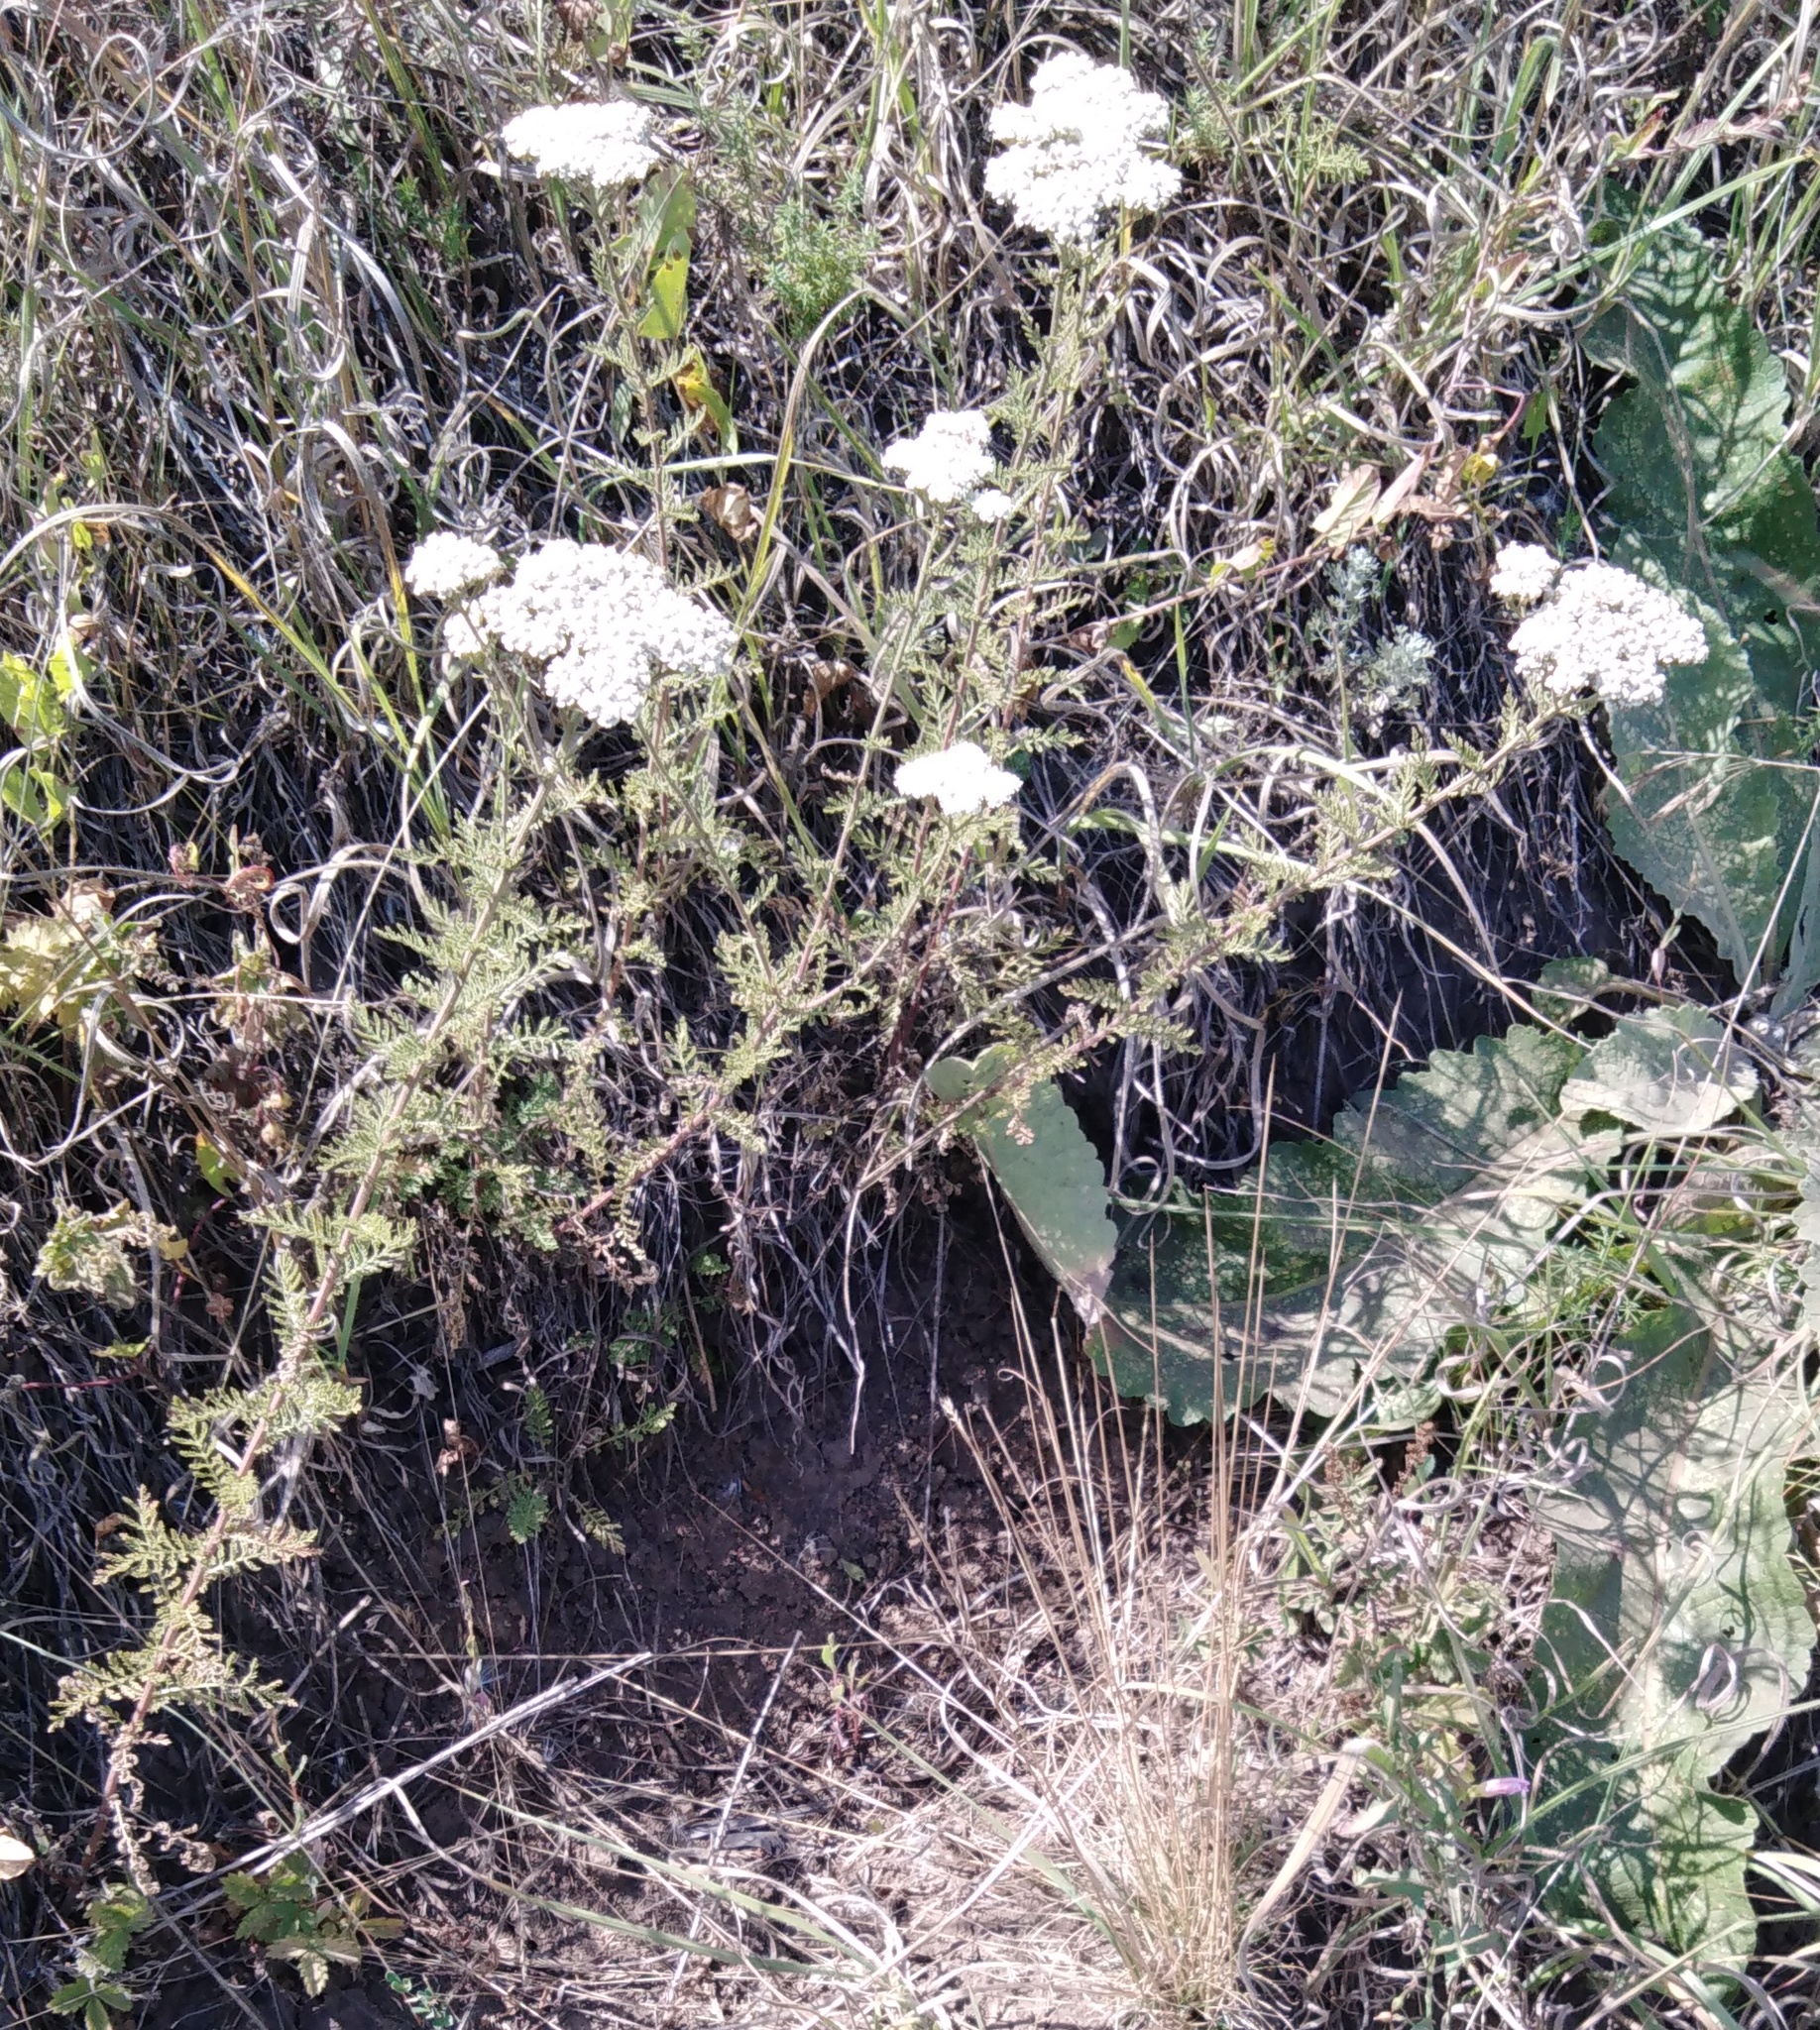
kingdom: Plantae
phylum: Tracheophyta
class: Magnoliopsida
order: Asterales
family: Asteraceae
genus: Achillea
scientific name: Achillea nobilis
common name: Noble yarrow
